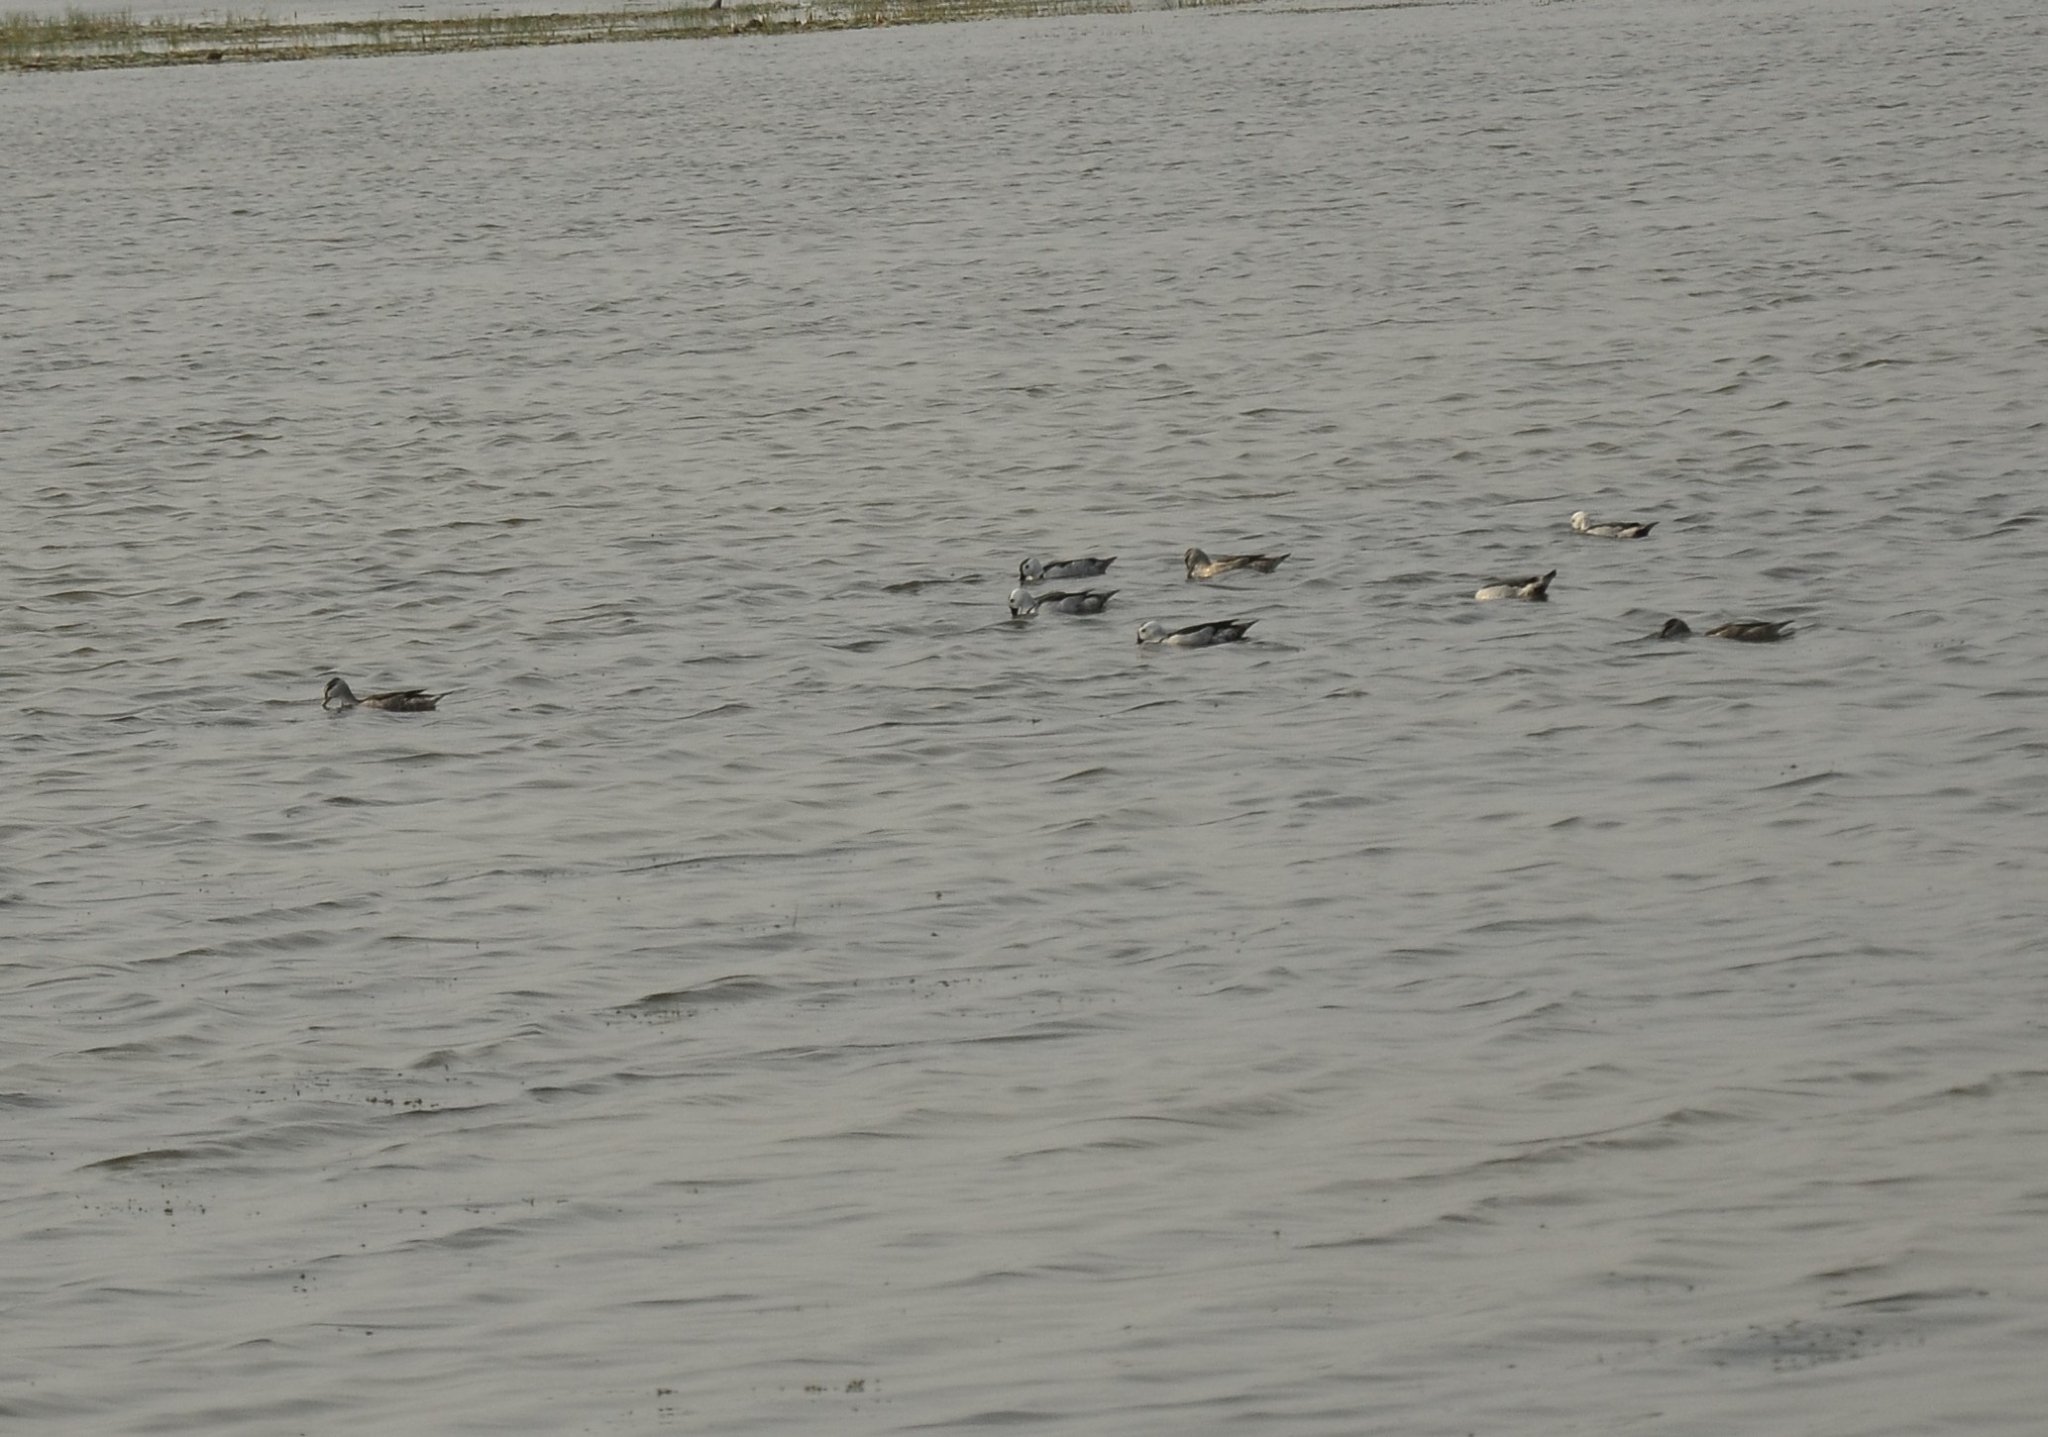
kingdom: Animalia
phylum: Chordata
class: Aves
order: Anseriformes
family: Anatidae
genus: Nettapus
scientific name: Nettapus coromandelianus
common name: Cotton pygmy-goose
